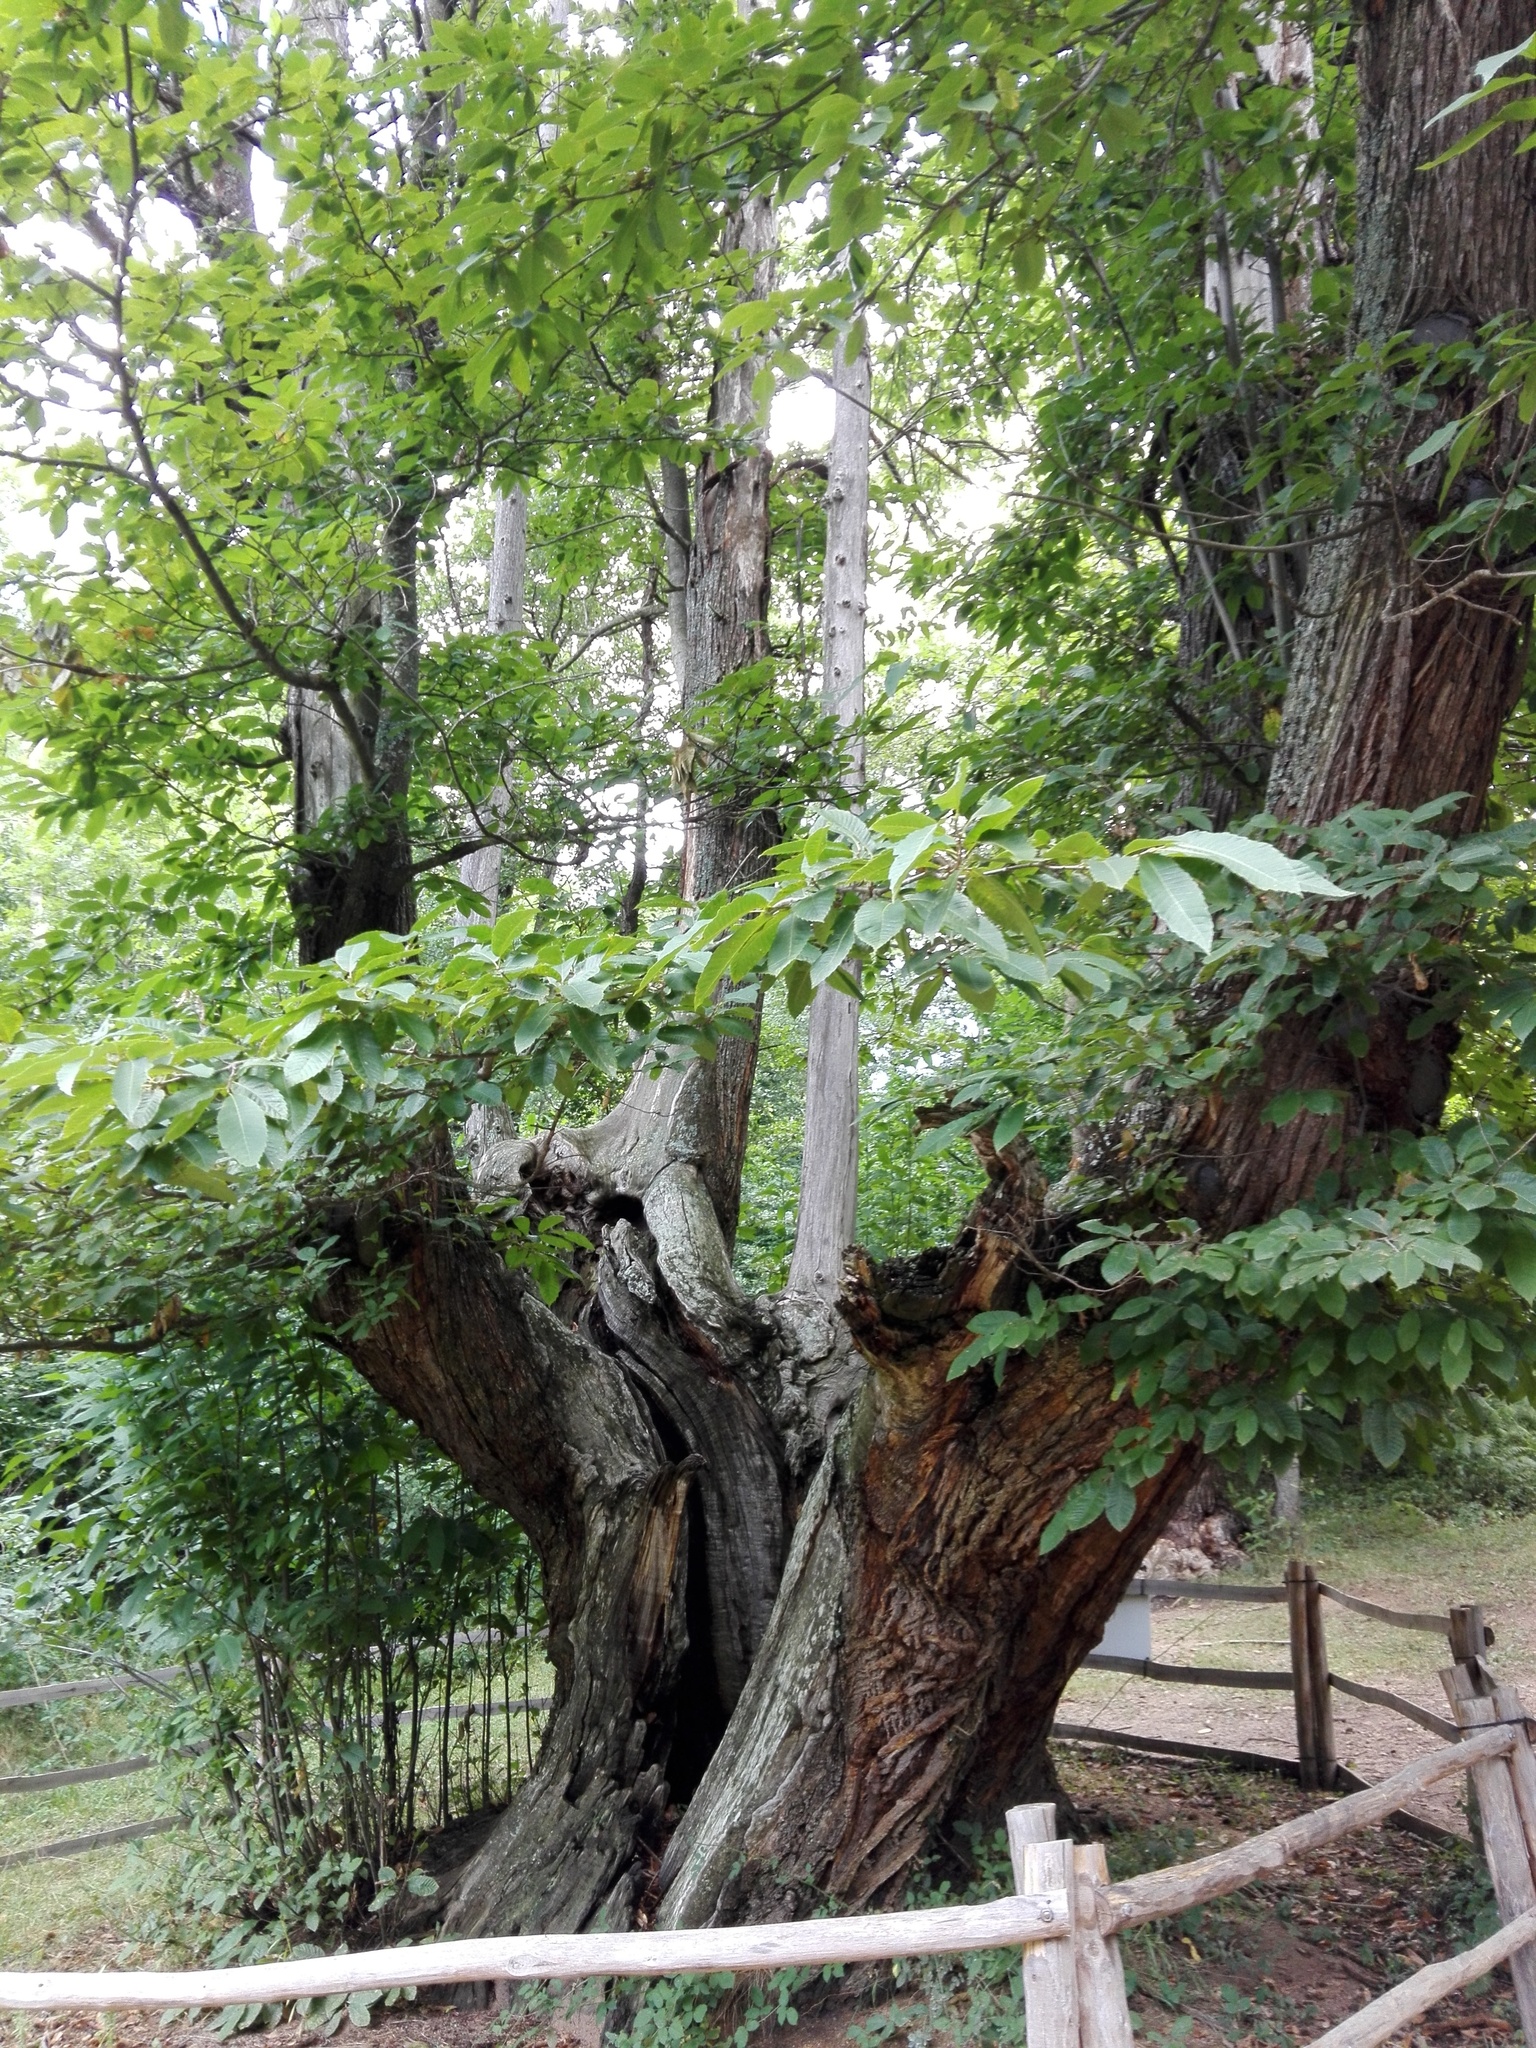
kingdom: Plantae
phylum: Tracheophyta
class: Magnoliopsida
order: Fagales
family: Fagaceae
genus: Castanea
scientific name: Castanea sativa
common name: Sweet chestnut
